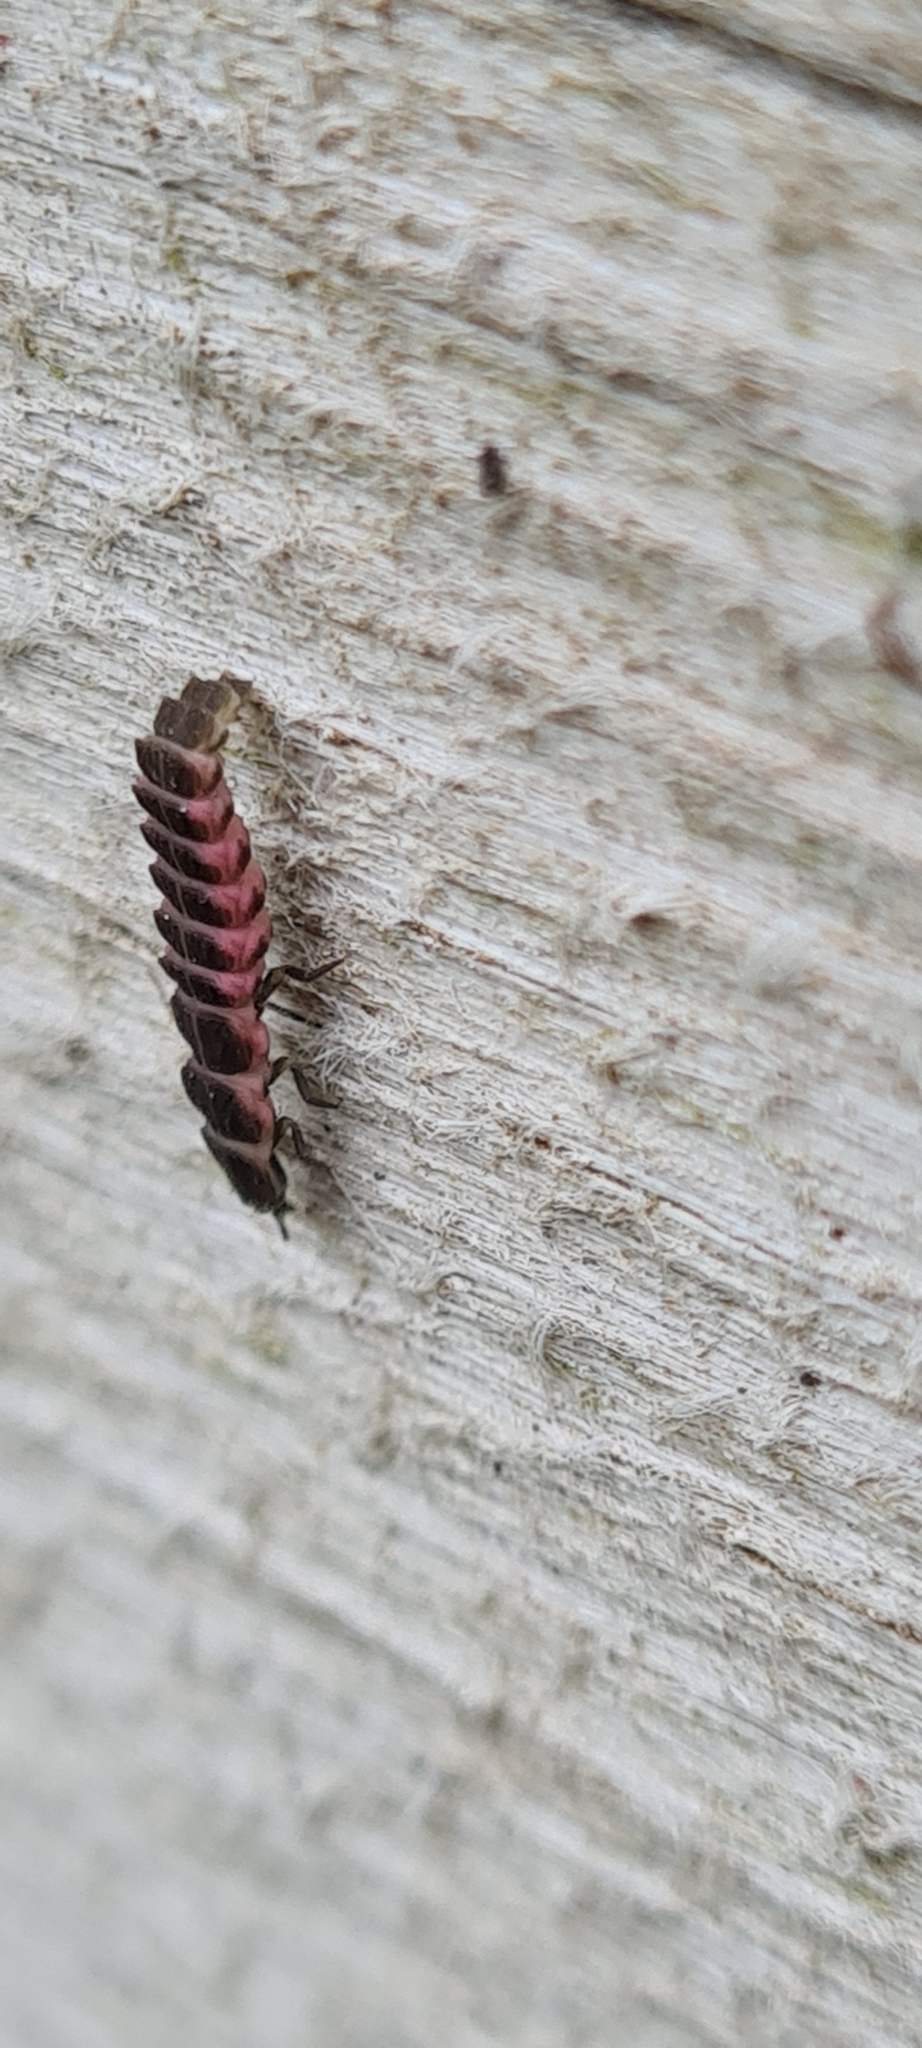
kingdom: Animalia
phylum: Arthropoda
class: Insecta
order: Coleoptera
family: Lampyridae
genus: Nyctophila
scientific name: Nyctophila reichii
